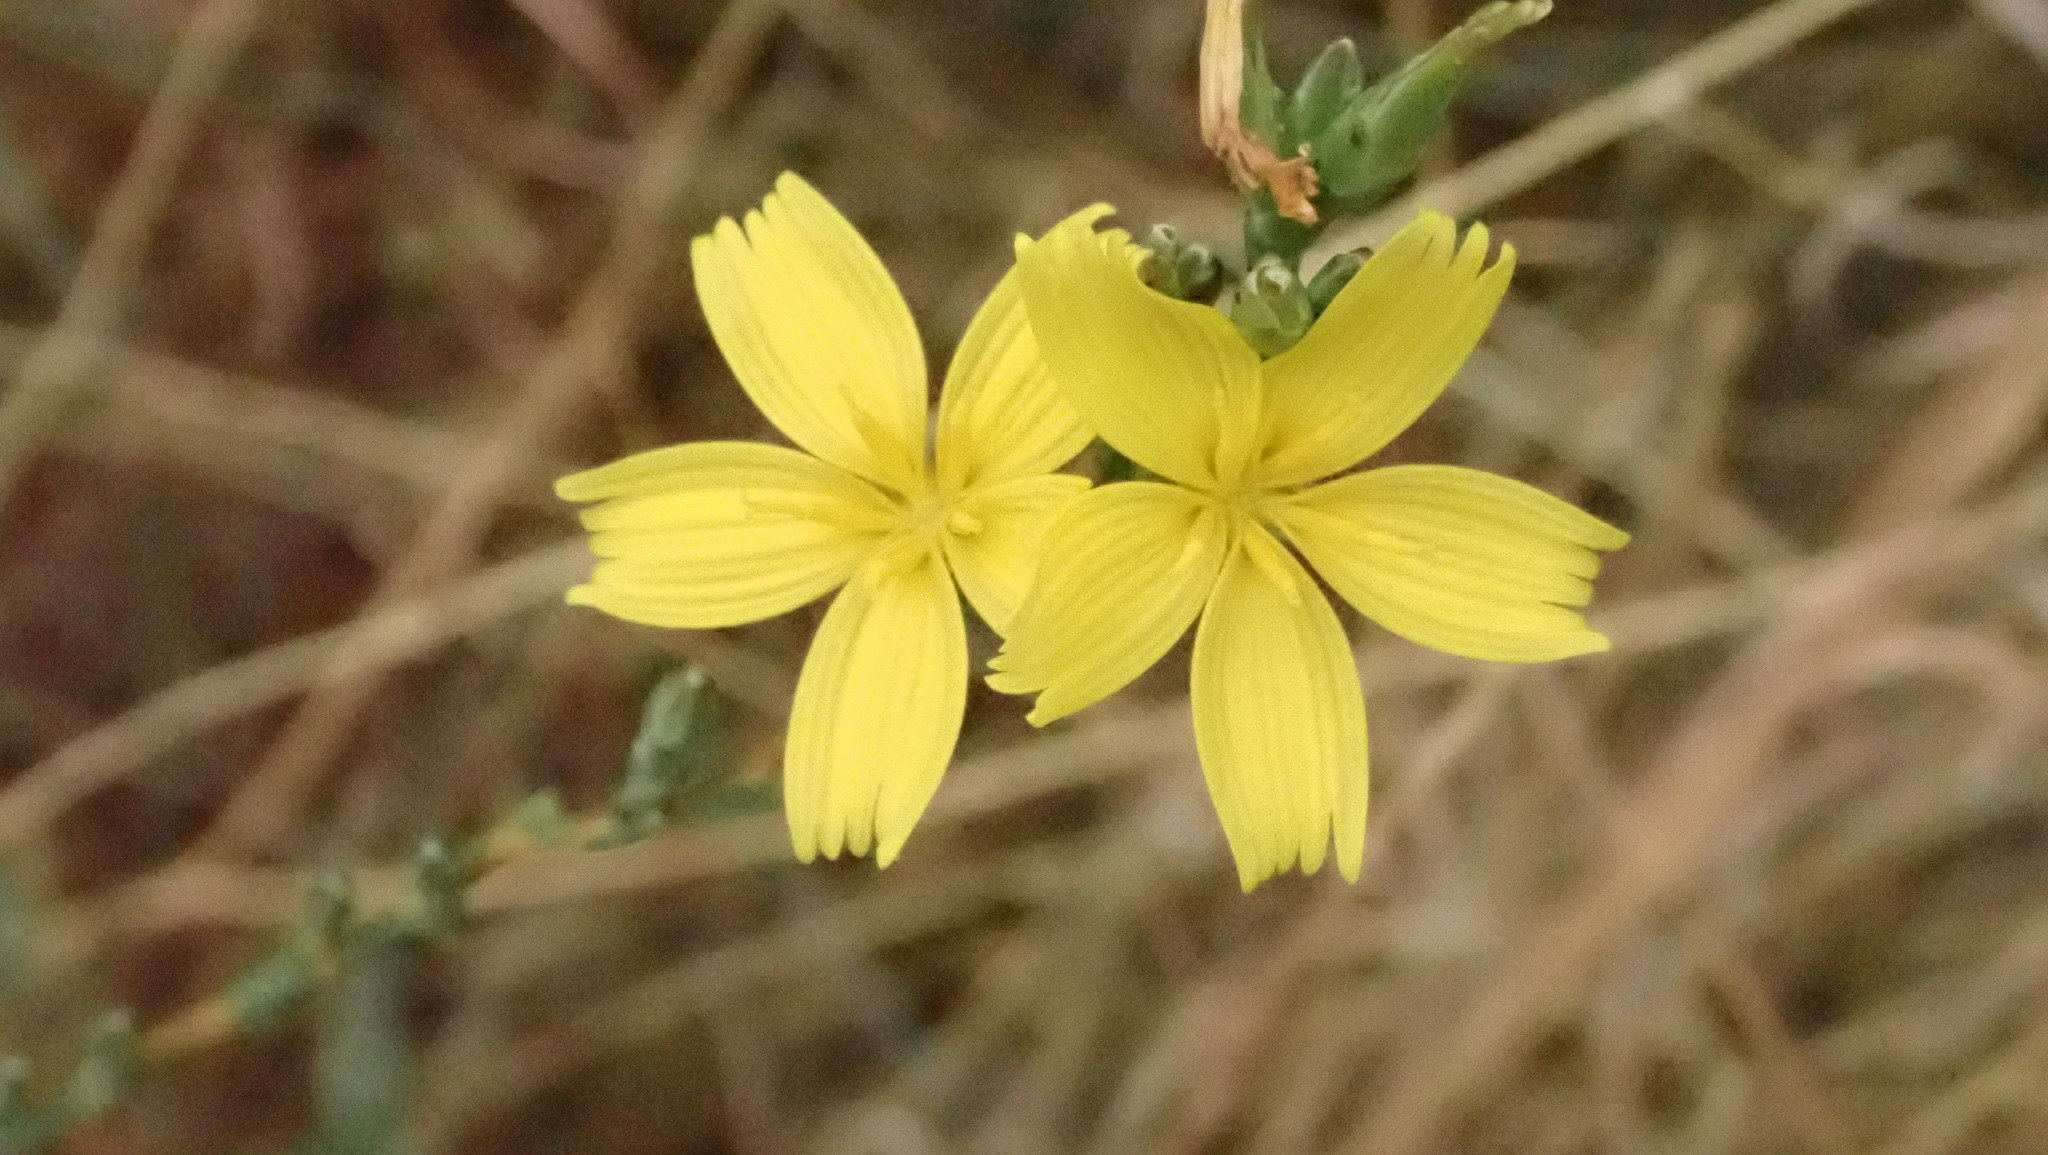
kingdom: Plantae
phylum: Tracheophyta
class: Magnoliopsida
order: Asterales
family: Asteraceae
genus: Lactuca
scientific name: Lactuca viminea
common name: Pliant lettuce
